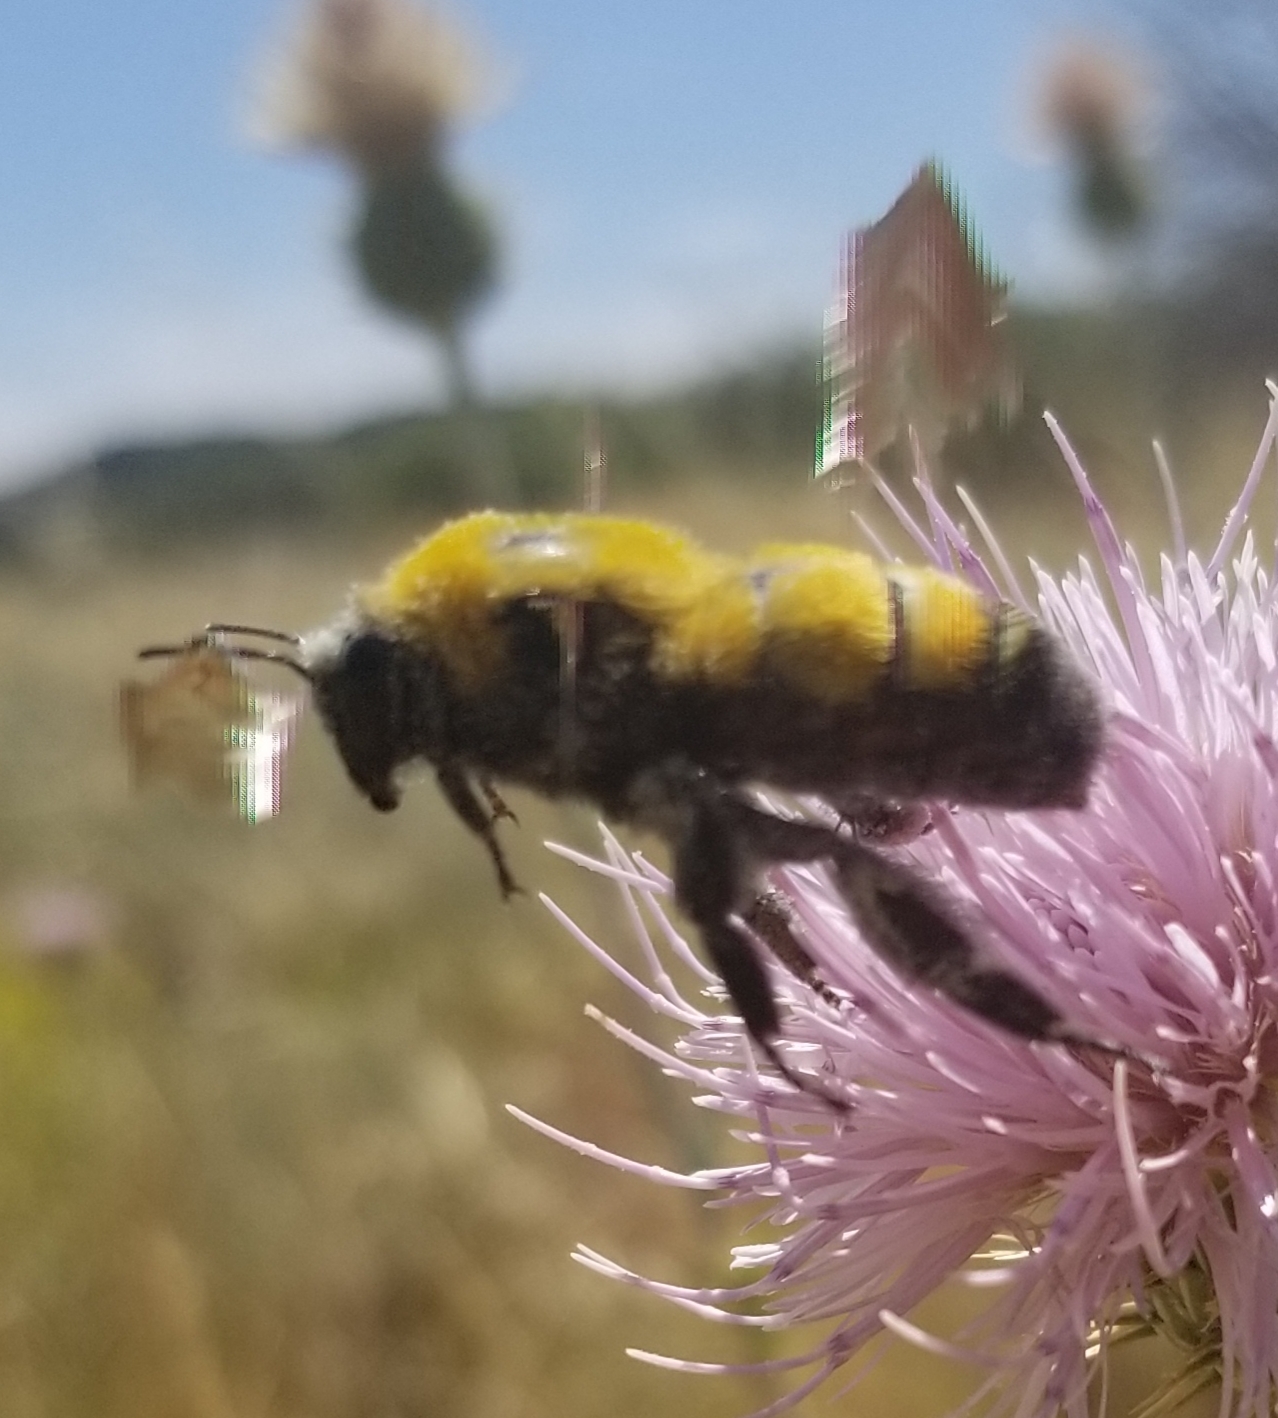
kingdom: Animalia
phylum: Arthropoda
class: Insecta
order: Hymenoptera
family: Apidae
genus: Bombus
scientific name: Bombus morrisoni
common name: Morrison bumble bee
